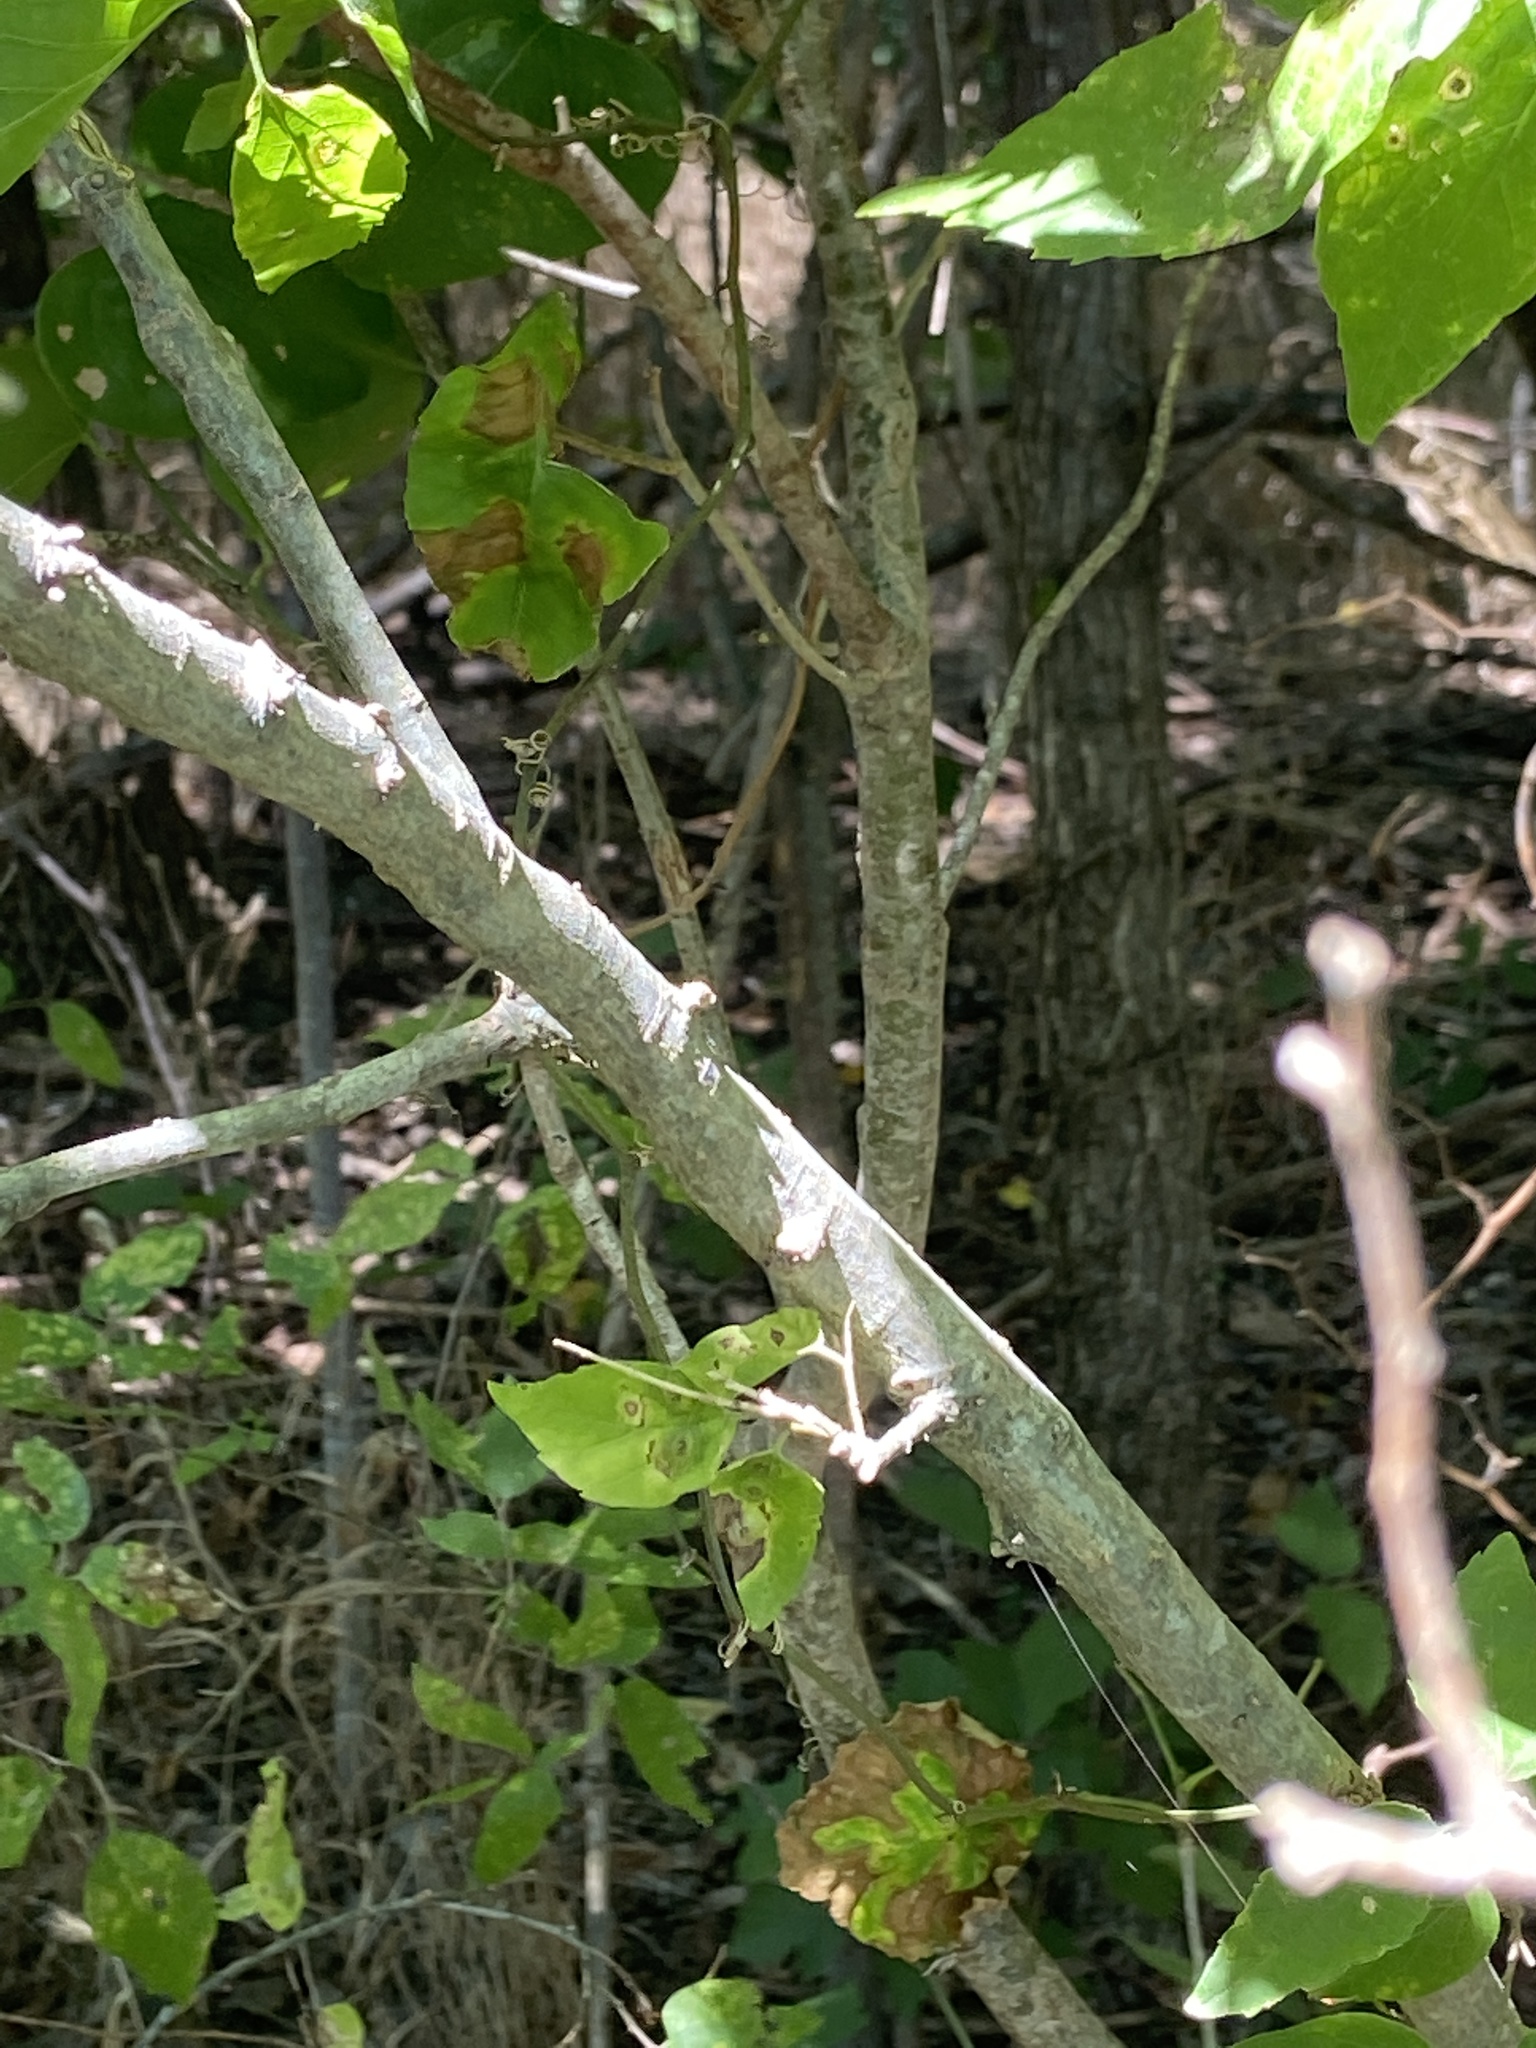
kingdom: Plantae
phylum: Tracheophyta
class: Magnoliopsida
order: Rosales
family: Cannabaceae
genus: Celtis
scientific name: Celtis laevigata
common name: Sugarberry
